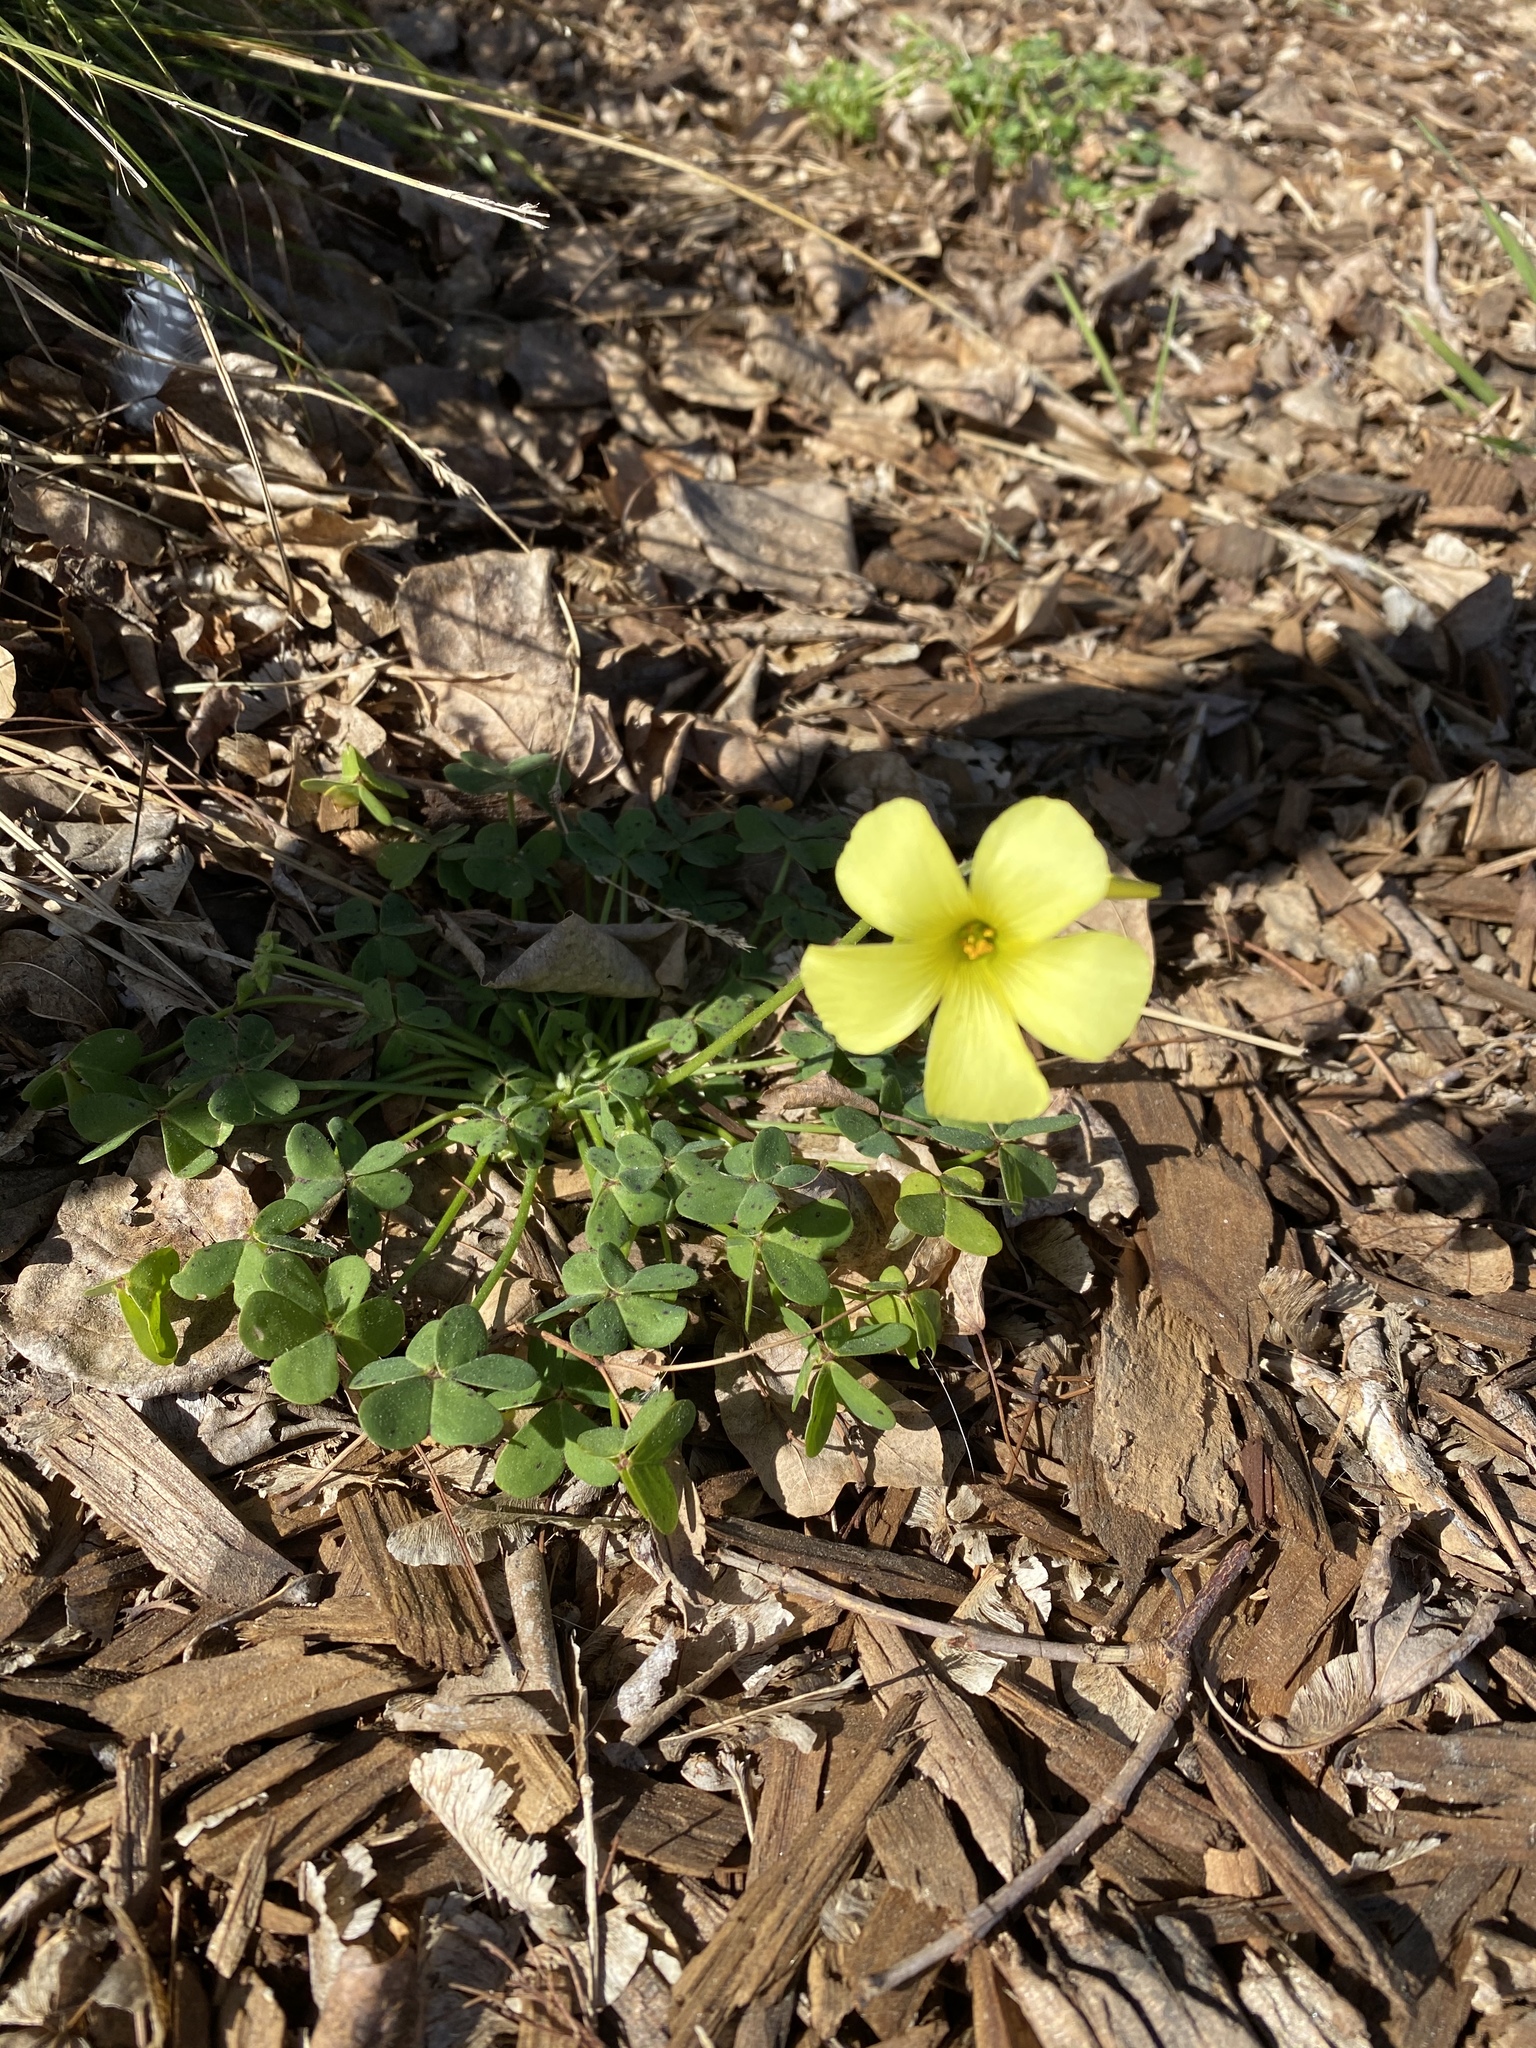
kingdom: Plantae
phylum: Tracheophyta
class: Magnoliopsida
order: Oxalidales
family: Oxalidaceae
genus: Oxalis
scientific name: Oxalis pes-caprae
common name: Bermuda-buttercup
